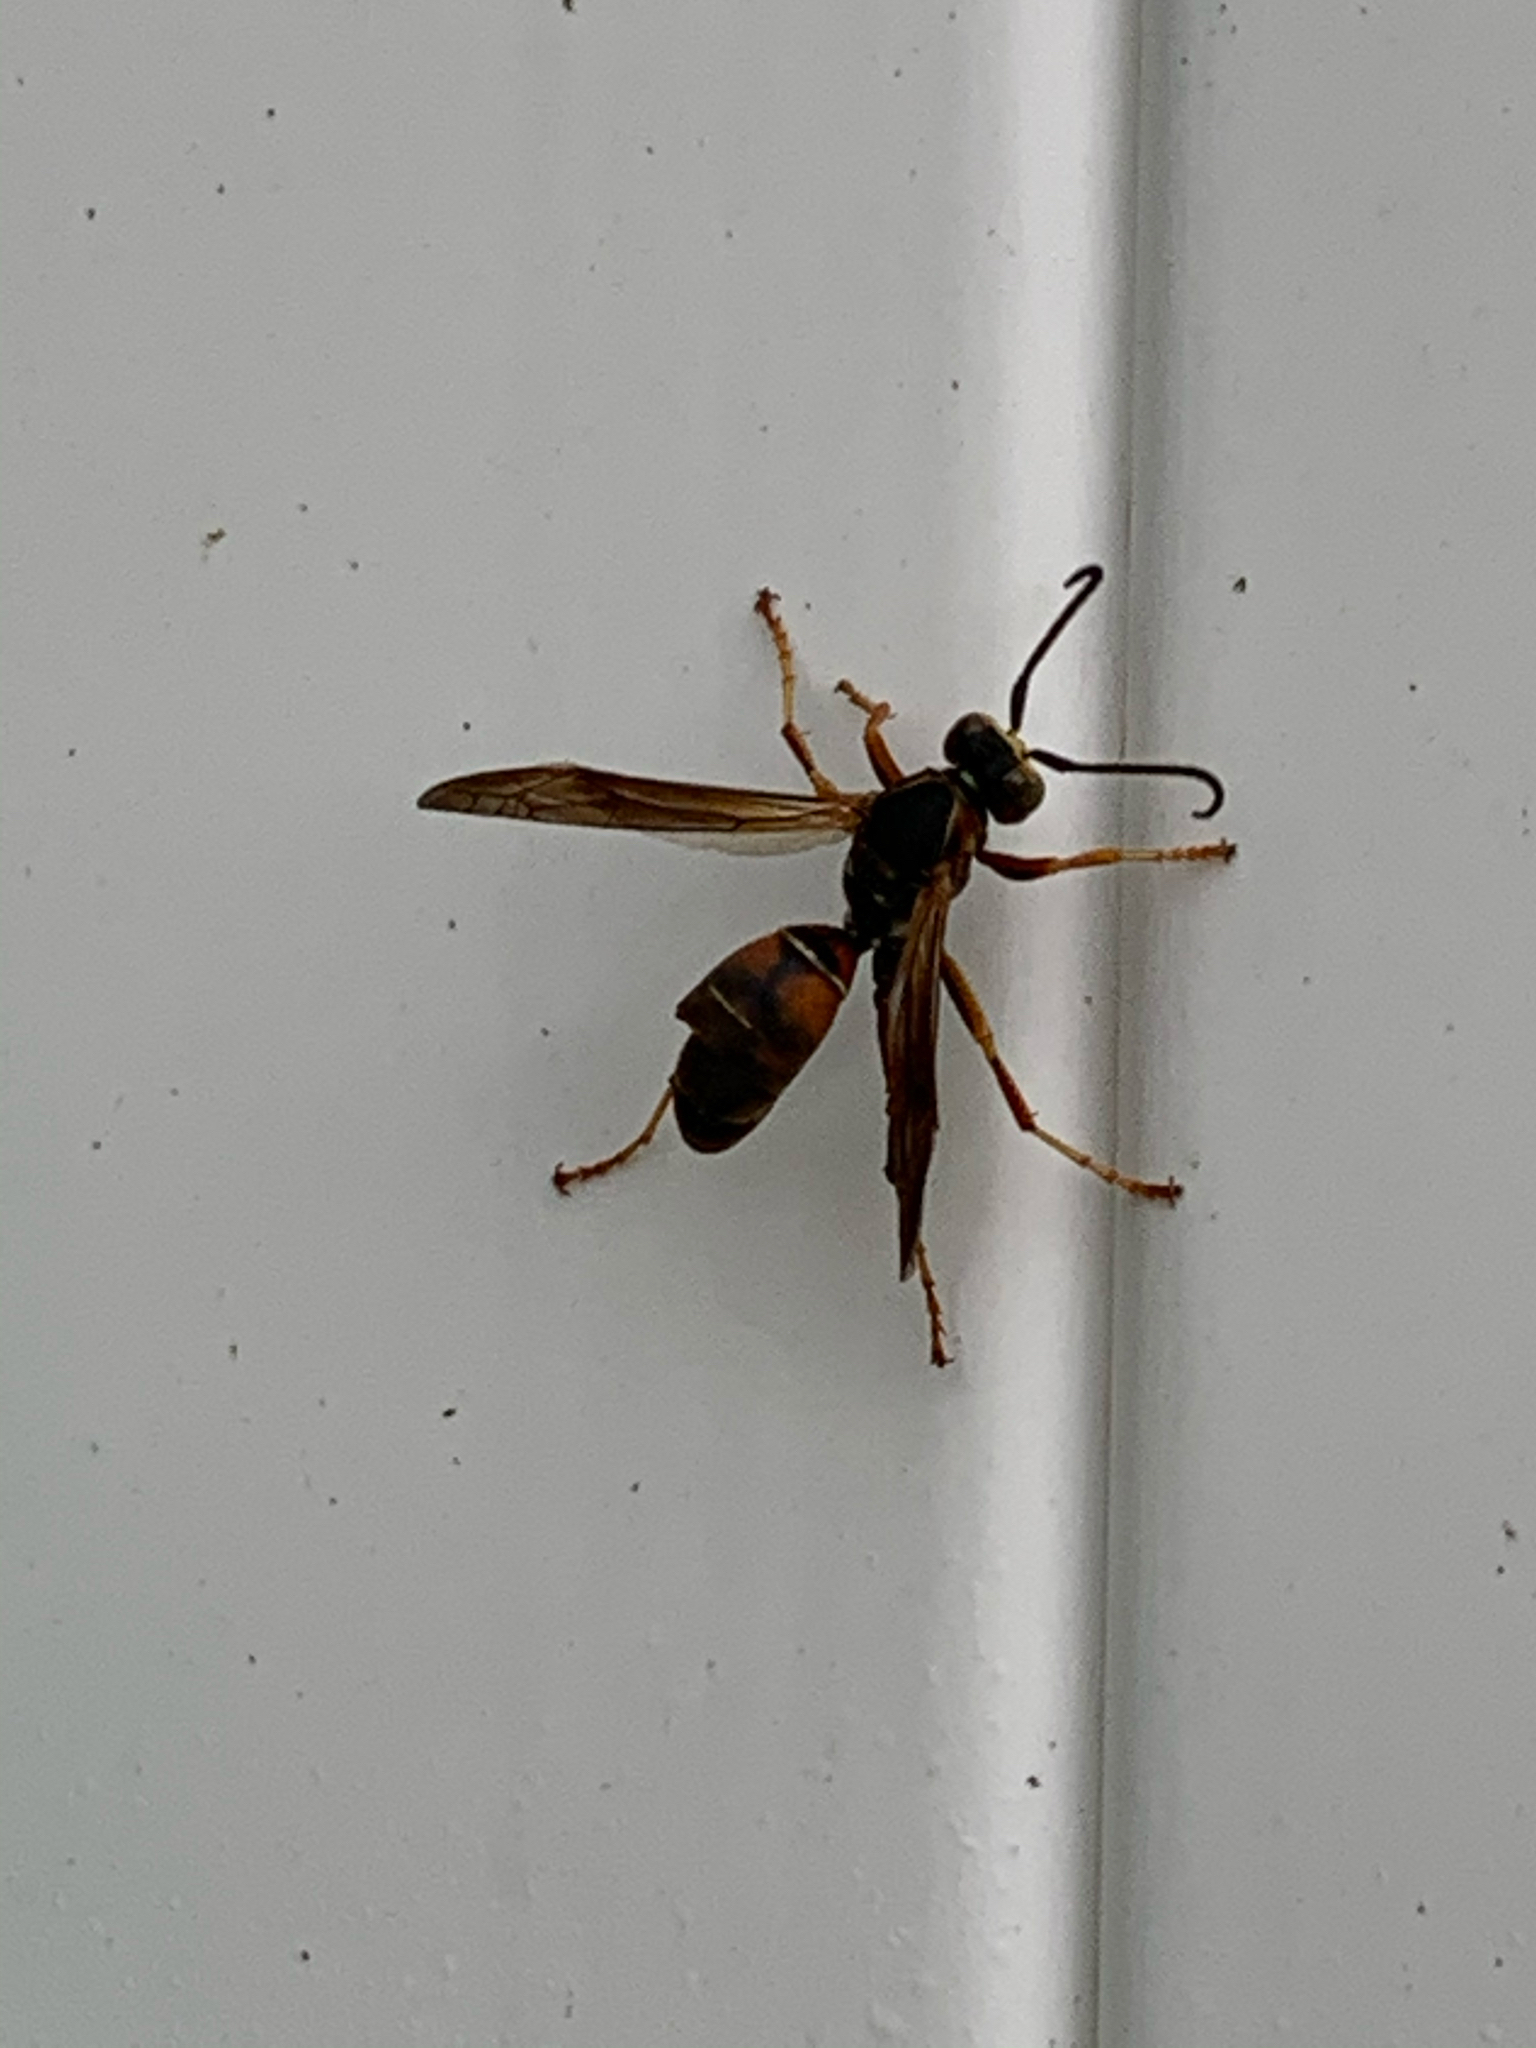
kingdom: Animalia
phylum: Arthropoda
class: Insecta
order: Hymenoptera
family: Eumenidae
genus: Polistes
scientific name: Polistes fuscatus
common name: Dark paper wasp
